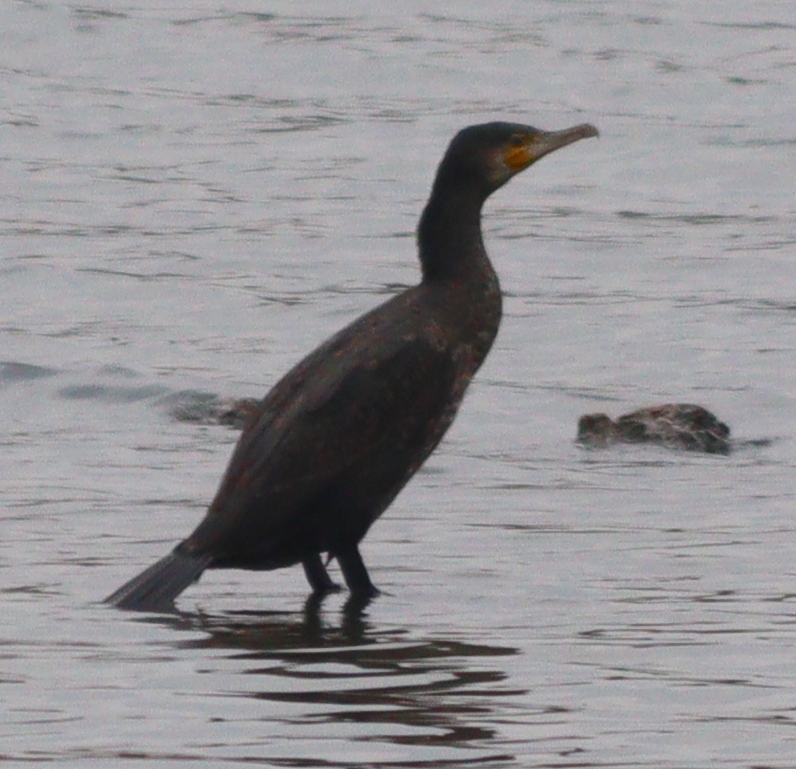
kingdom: Animalia
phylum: Chordata
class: Aves
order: Suliformes
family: Phalacrocoracidae
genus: Phalacrocorax
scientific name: Phalacrocorax carbo
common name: Great cormorant
